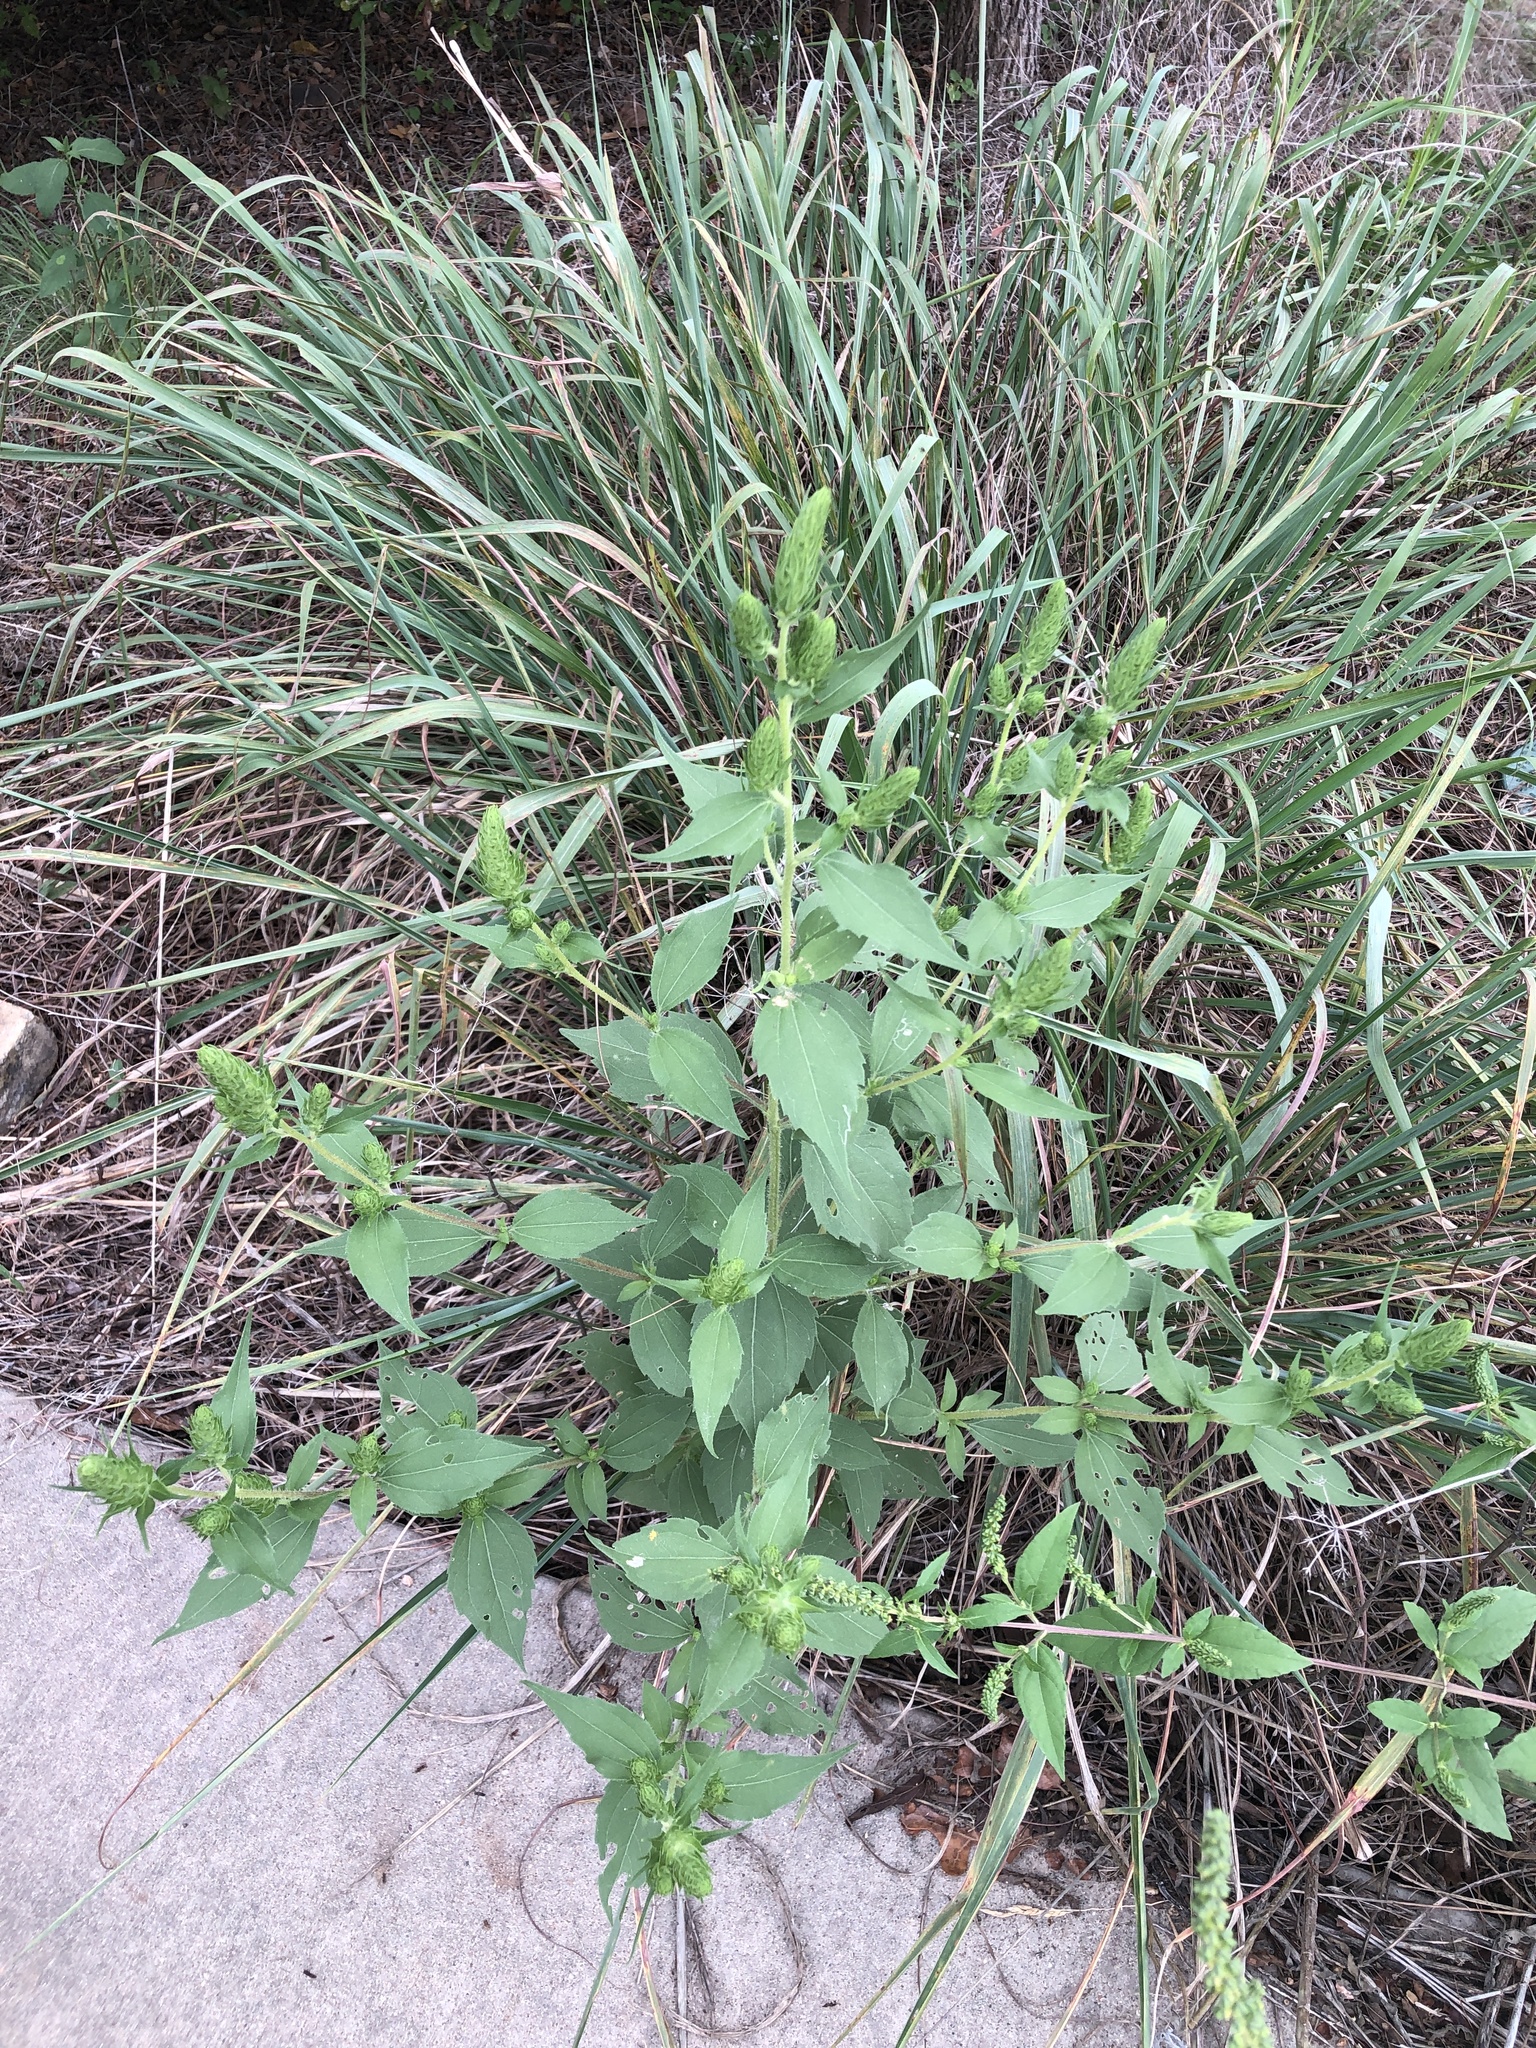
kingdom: Plantae
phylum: Tracheophyta
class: Magnoliopsida
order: Asterales
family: Asteraceae
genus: Iva
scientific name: Iva annua
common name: Marsh-elder
